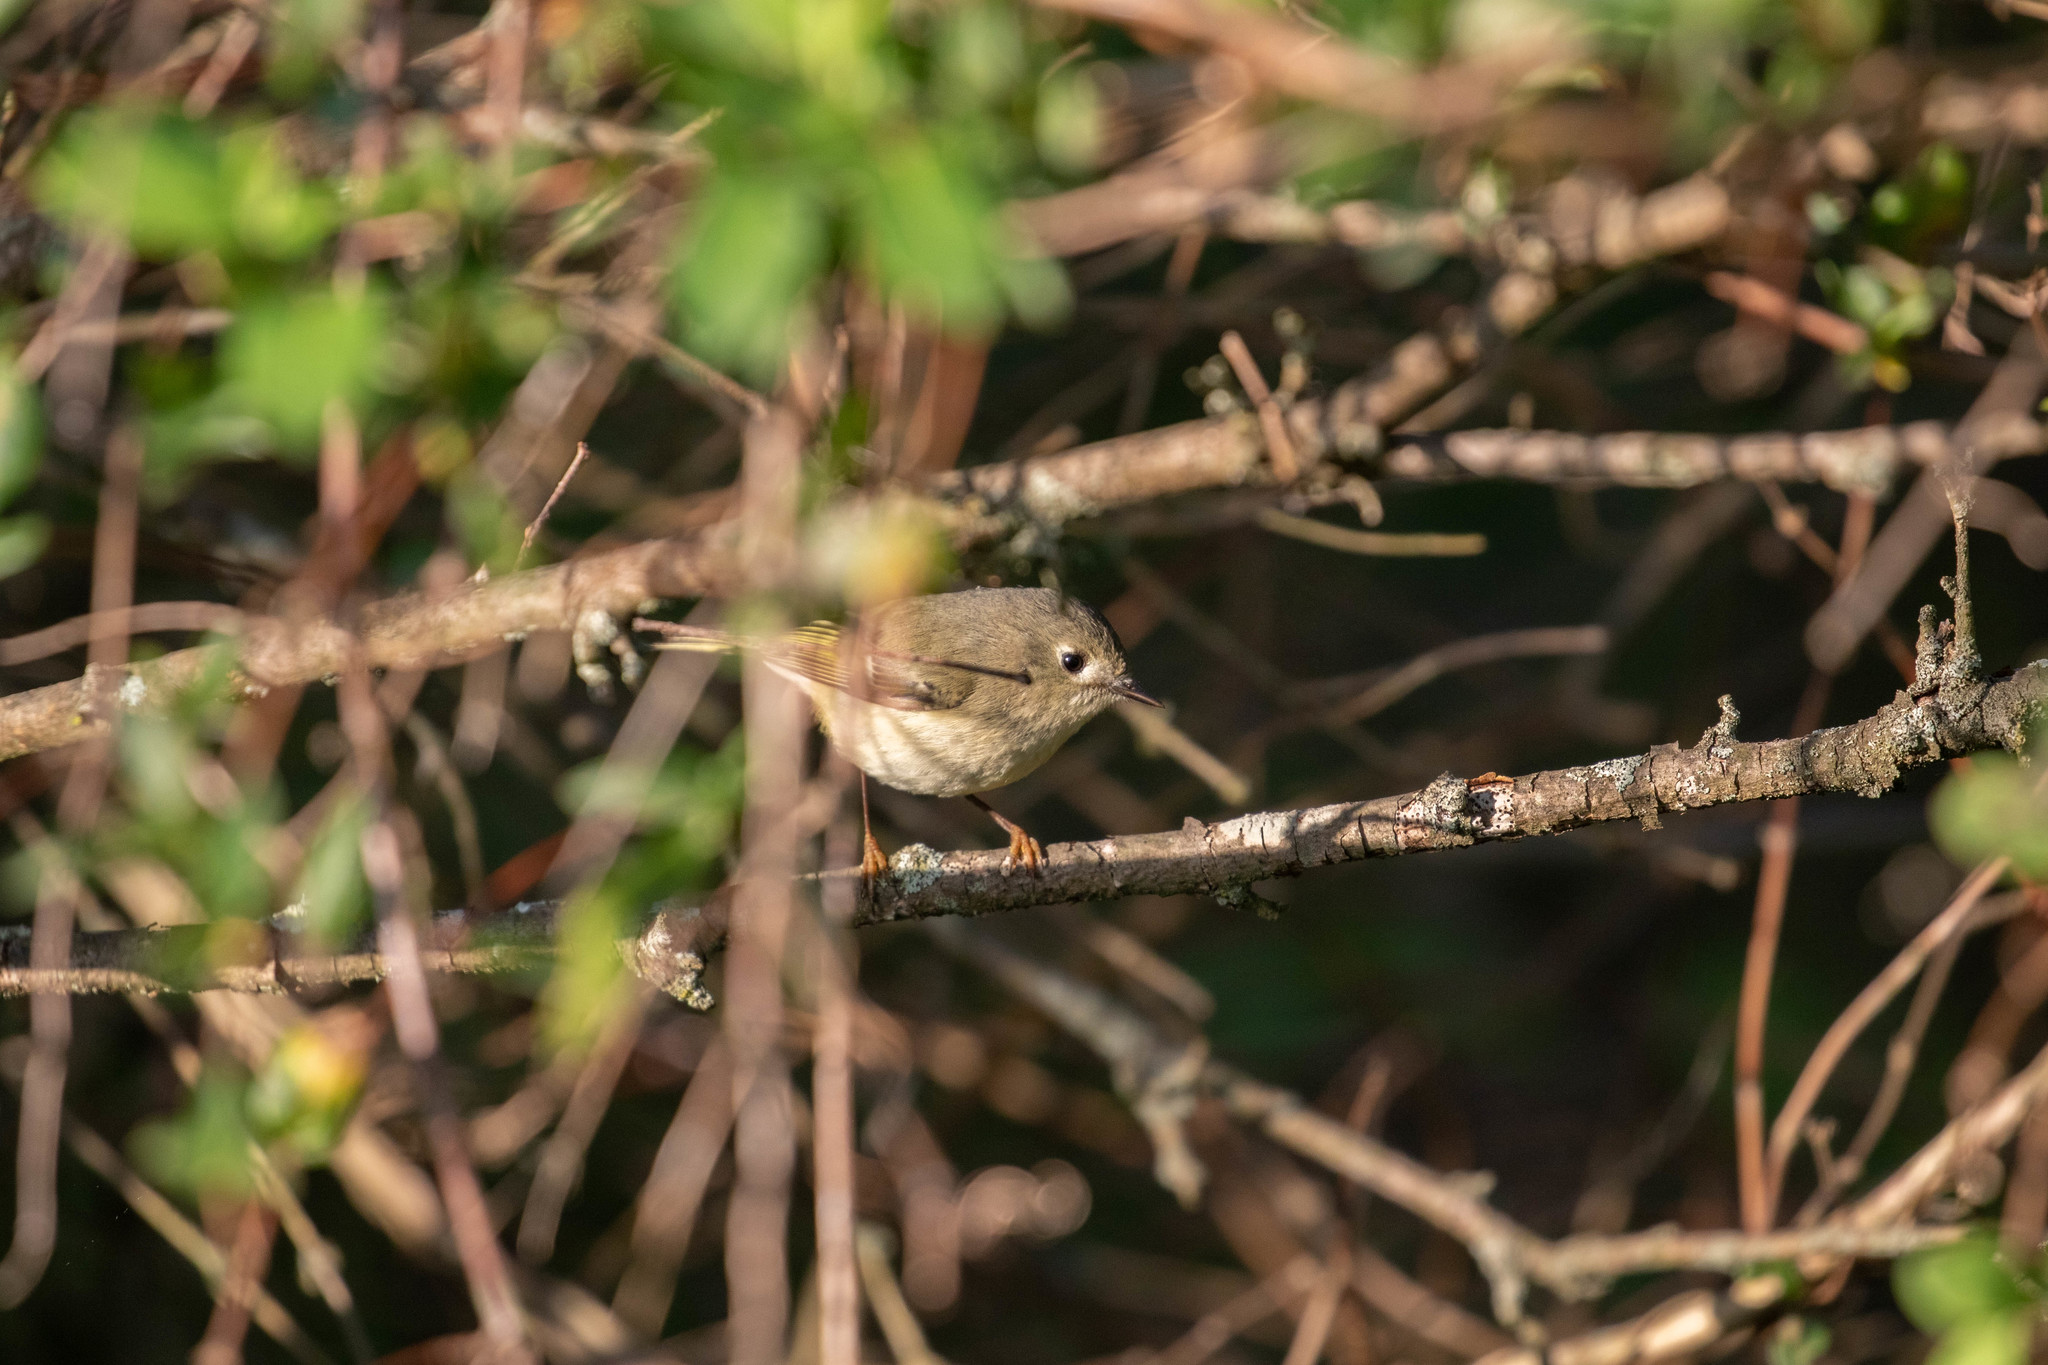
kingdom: Animalia
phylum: Chordata
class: Aves
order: Passeriformes
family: Regulidae
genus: Regulus
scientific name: Regulus calendula
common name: Ruby-crowned kinglet
